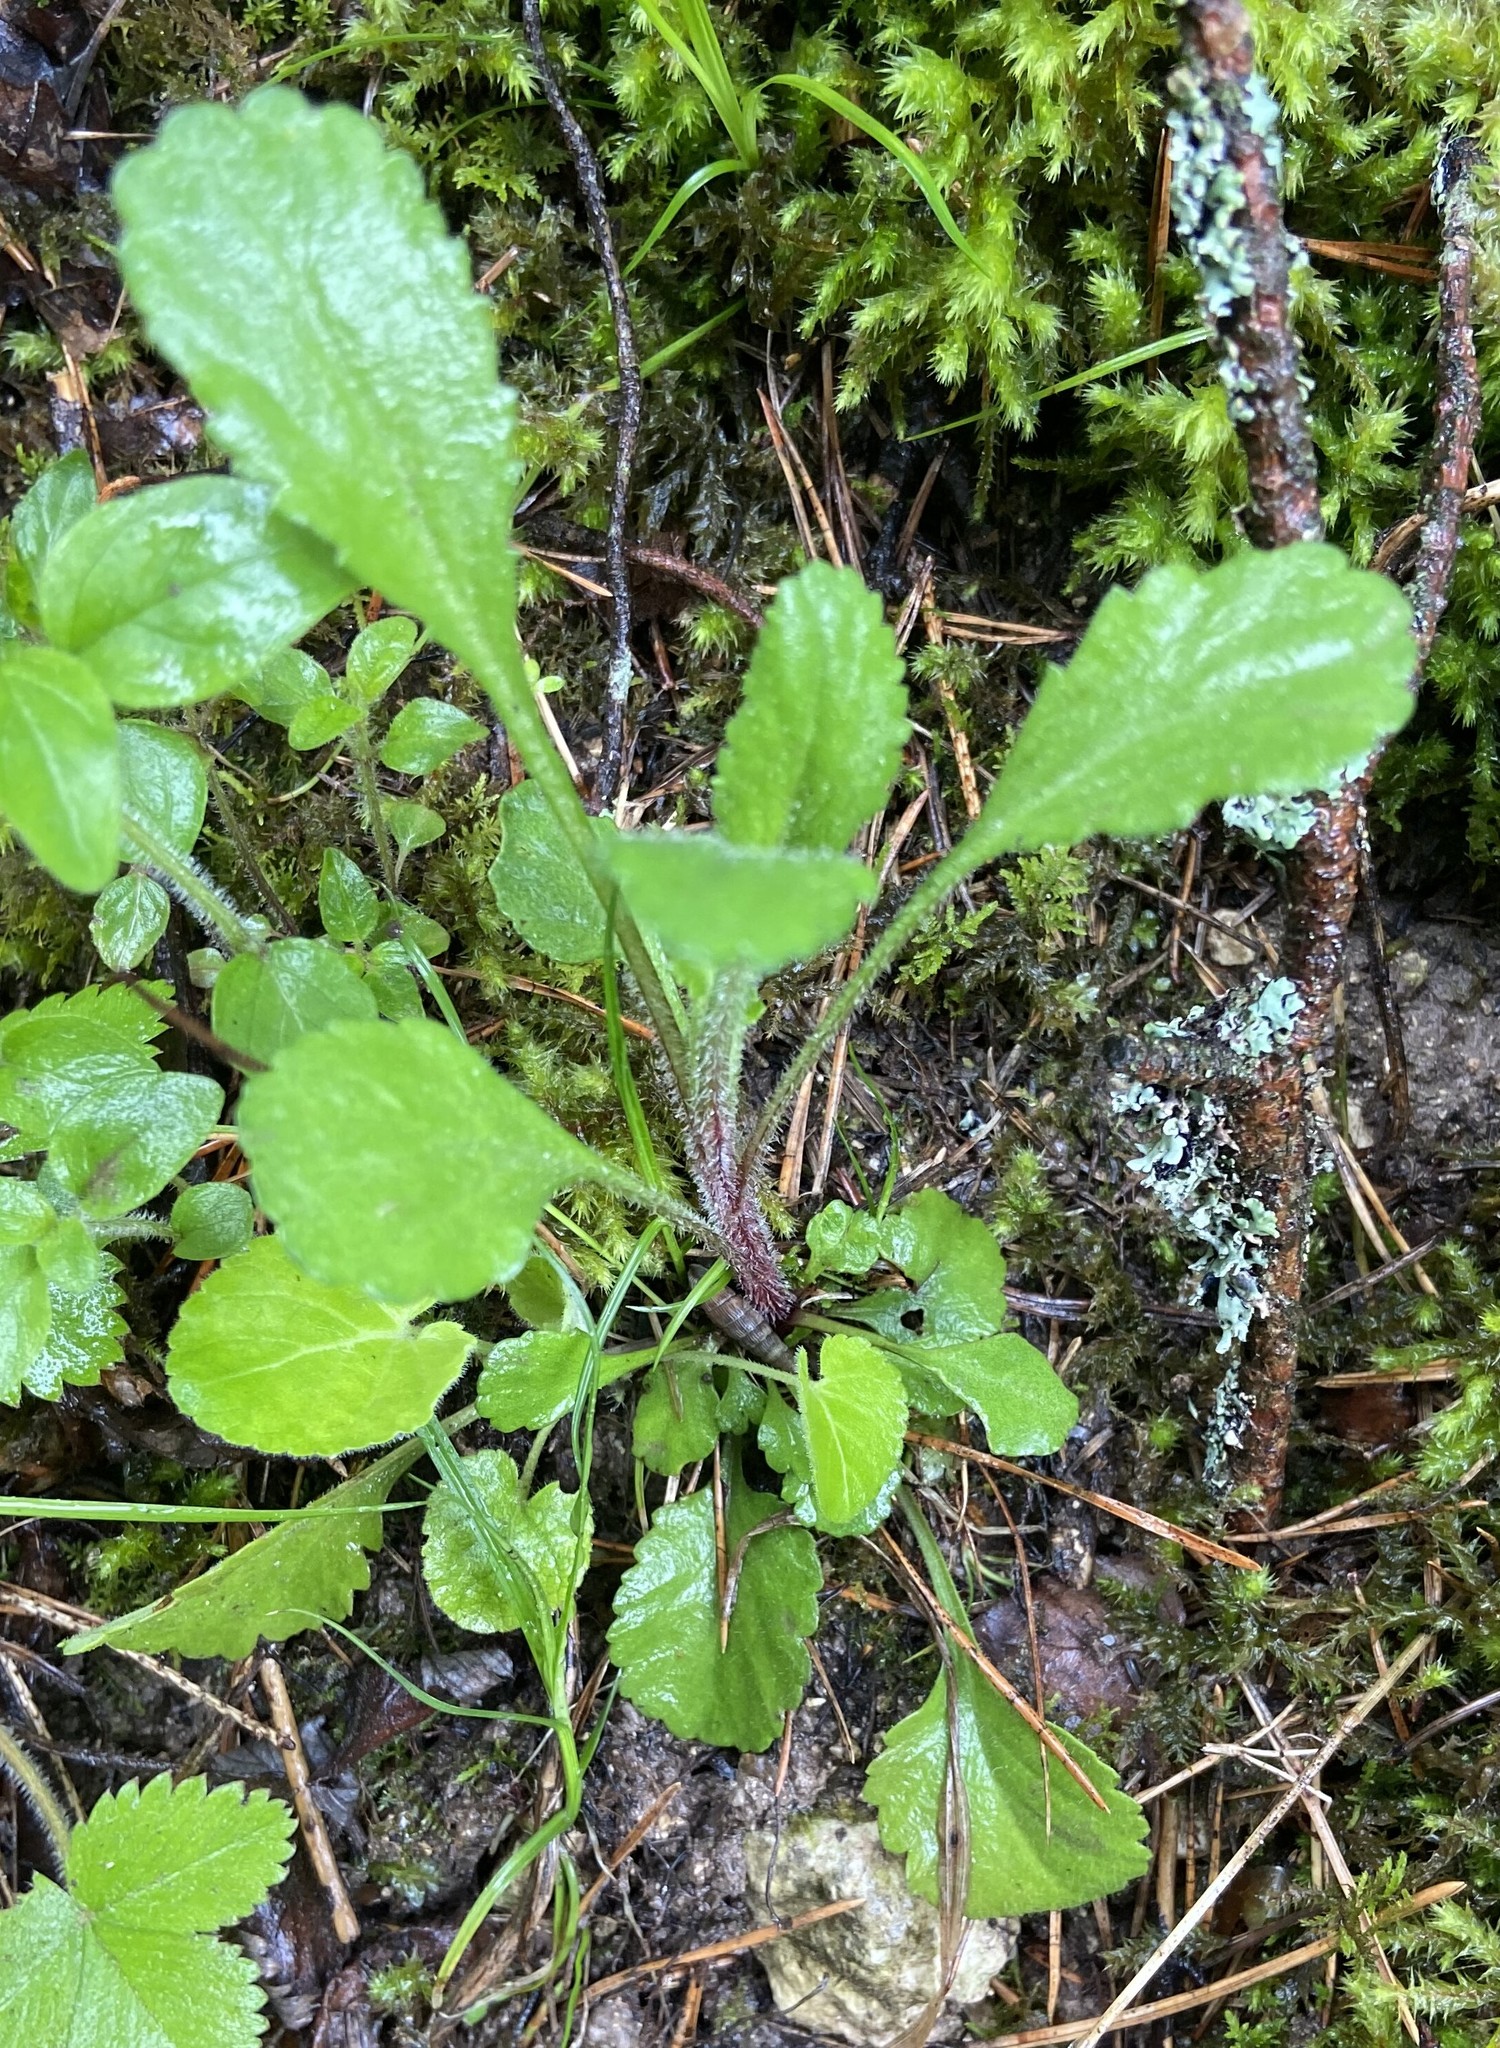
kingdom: Plantae
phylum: Tracheophyta
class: Magnoliopsida
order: Asterales
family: Asteraceae
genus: Leucanthemum
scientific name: Leucanthemum vulgare
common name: Oxeye daisy
